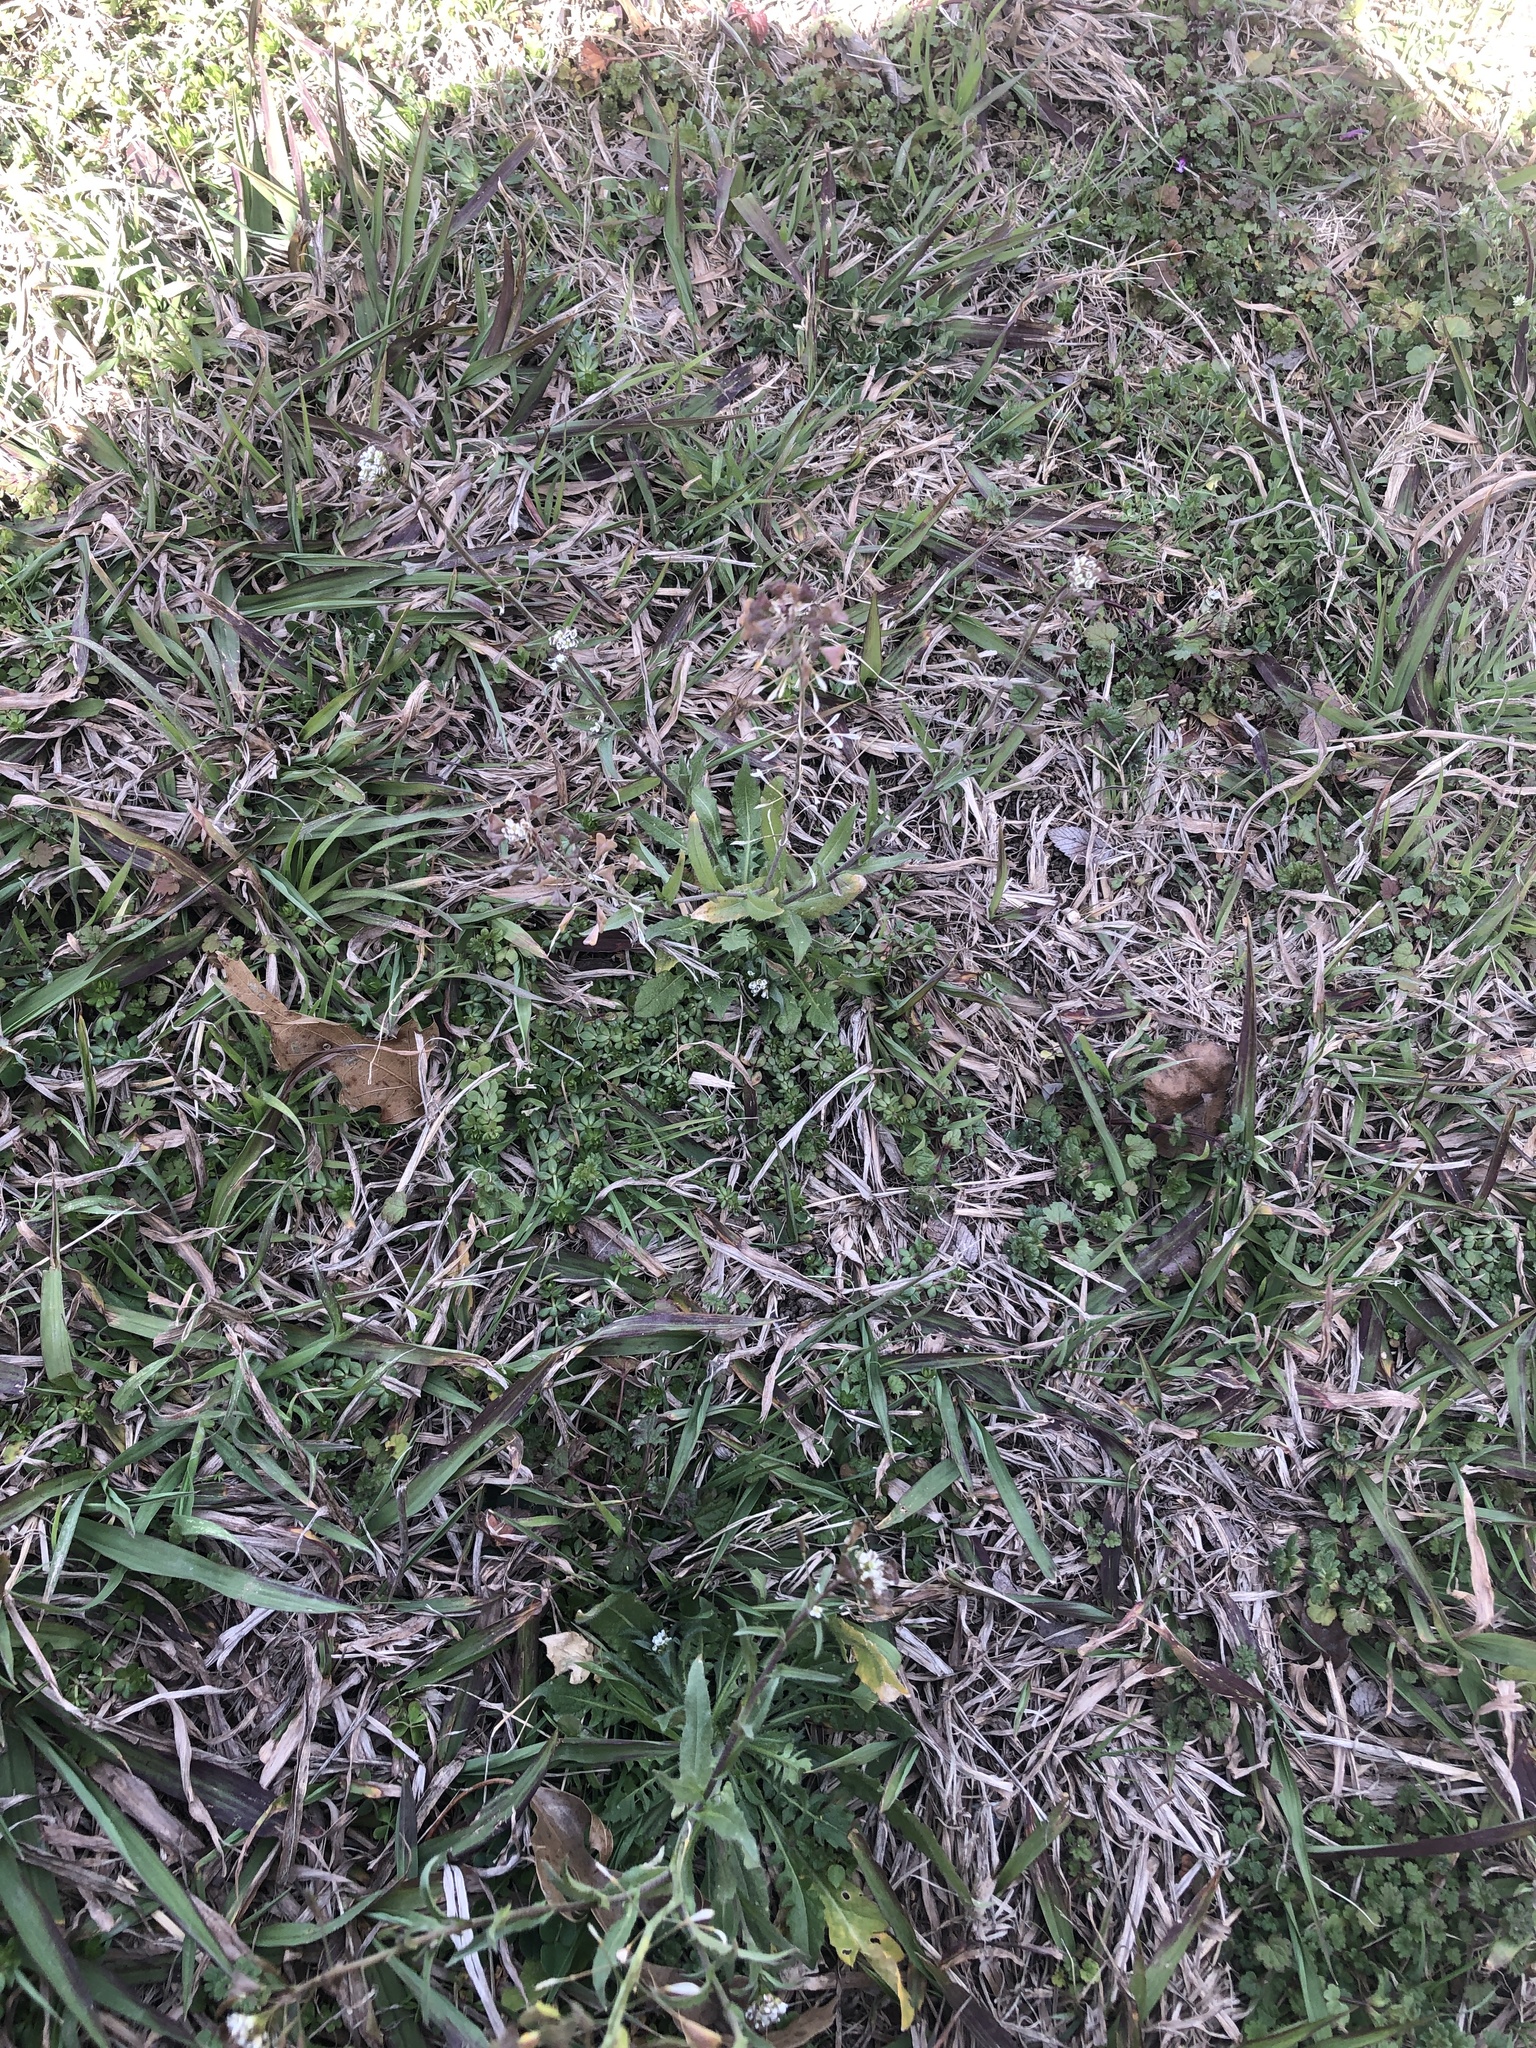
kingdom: Plantae
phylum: Tracheophyta
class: Magnoliopsida
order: Brassicales
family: Brassicaceae
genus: Capsella
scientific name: Capsella bursa-pastoris
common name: Shepherd's purse
